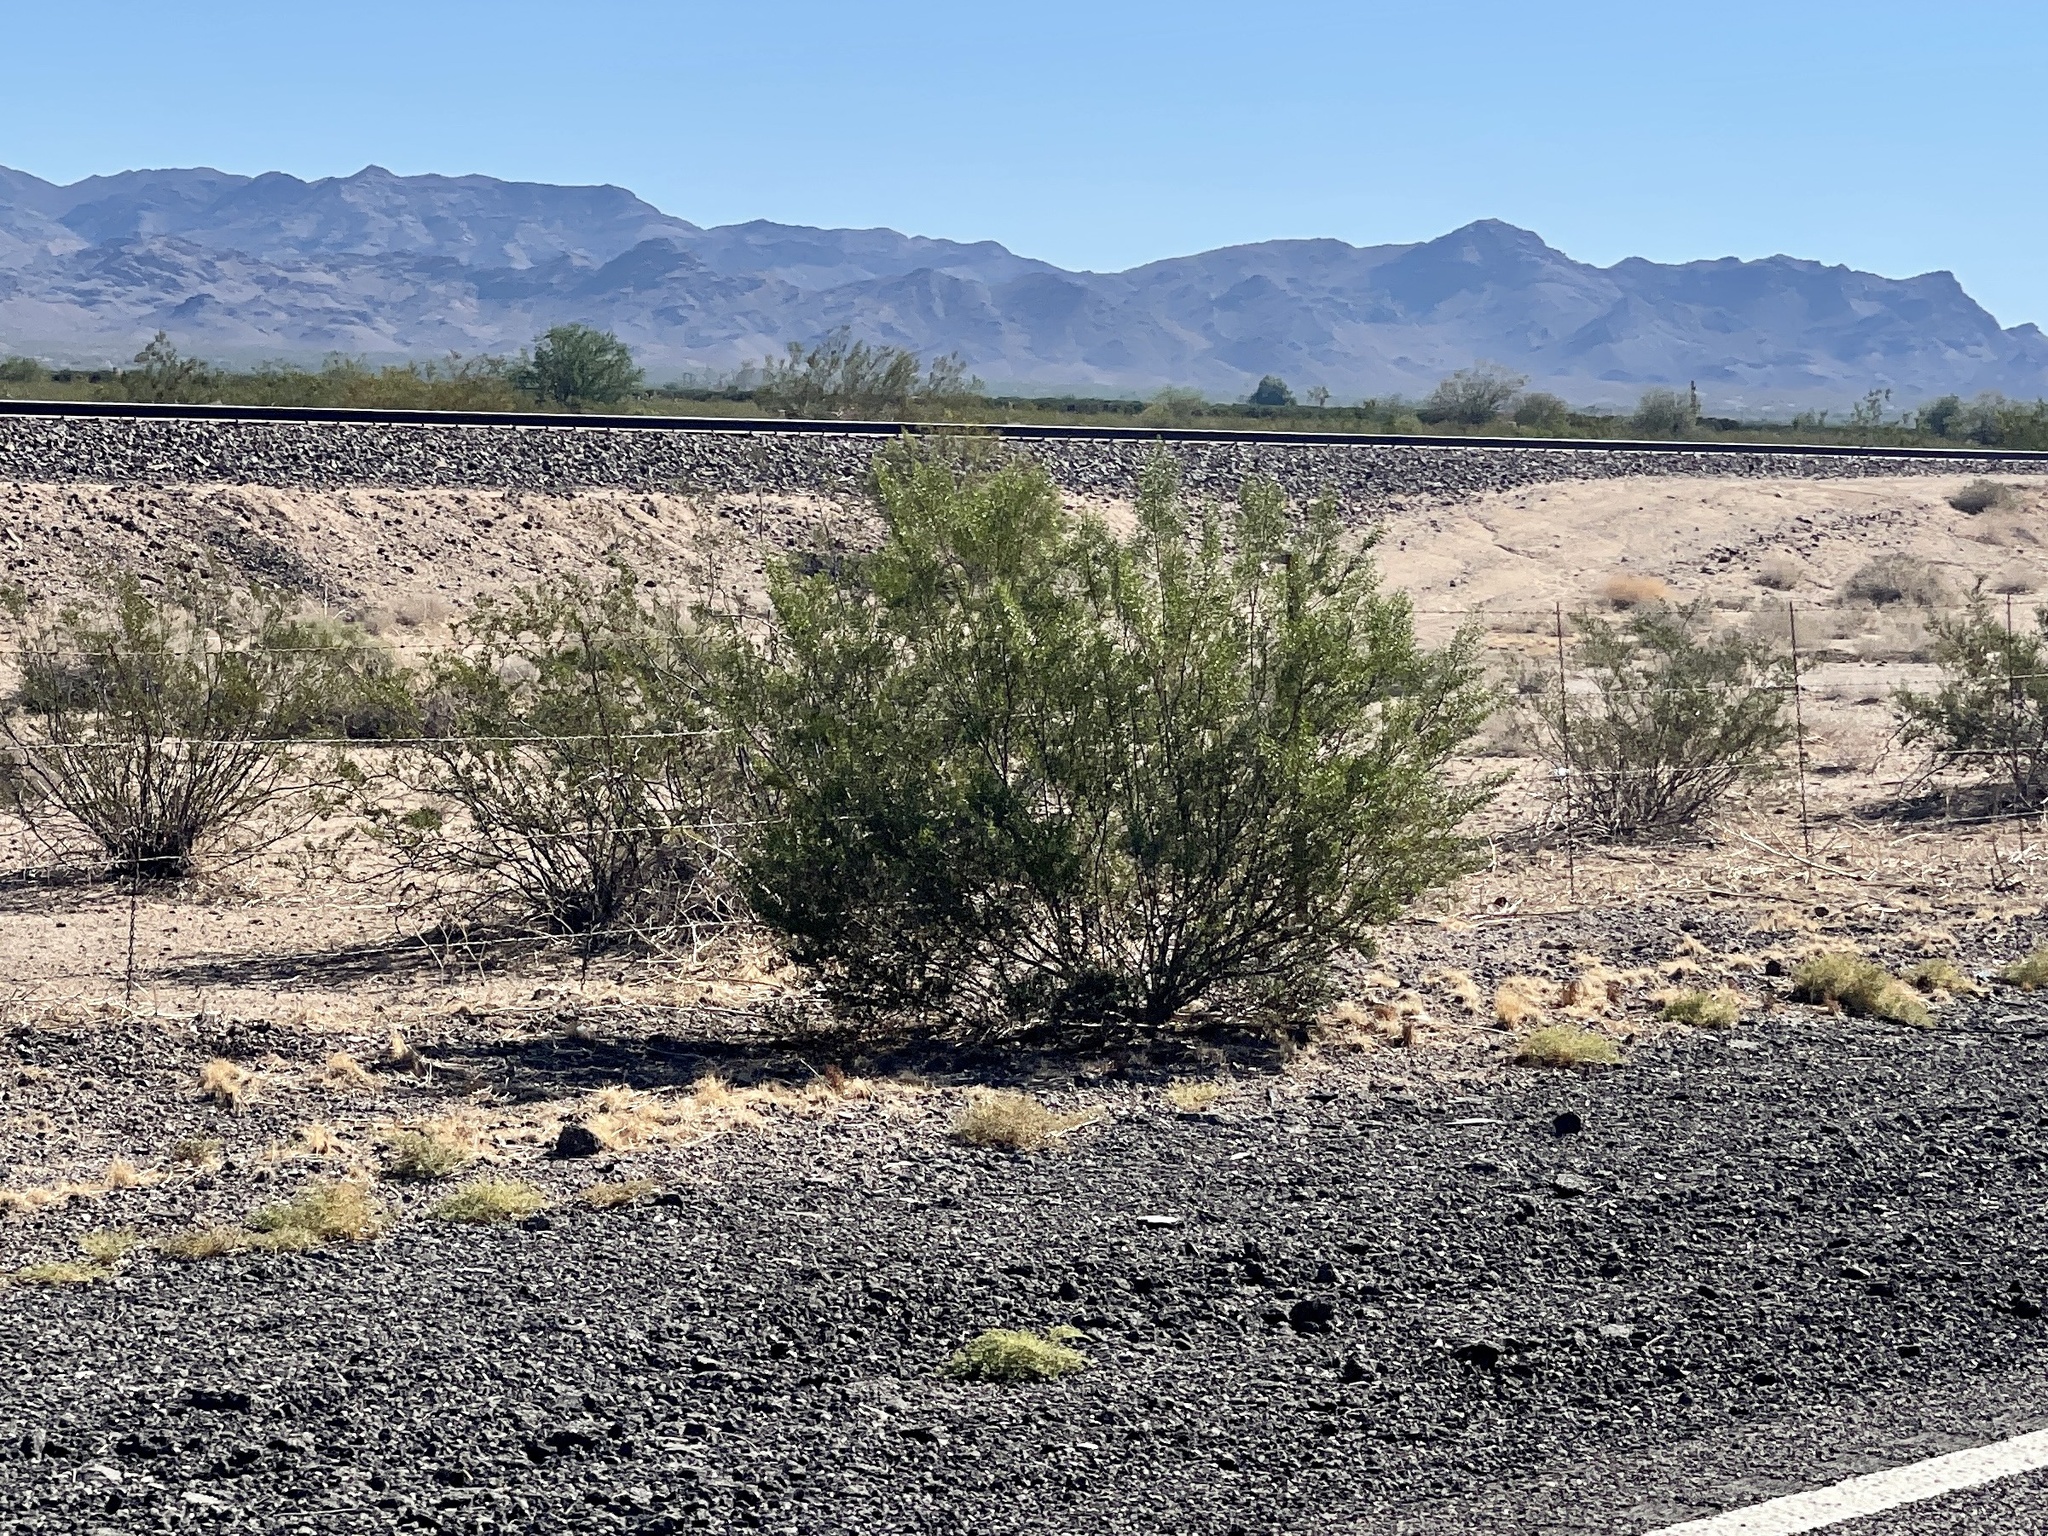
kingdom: Plantae
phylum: Tracheophyta
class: Magnoliopsida
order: Zygophyllales
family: Zygophyllaceae
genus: Larrea
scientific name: Larrea tridentata
